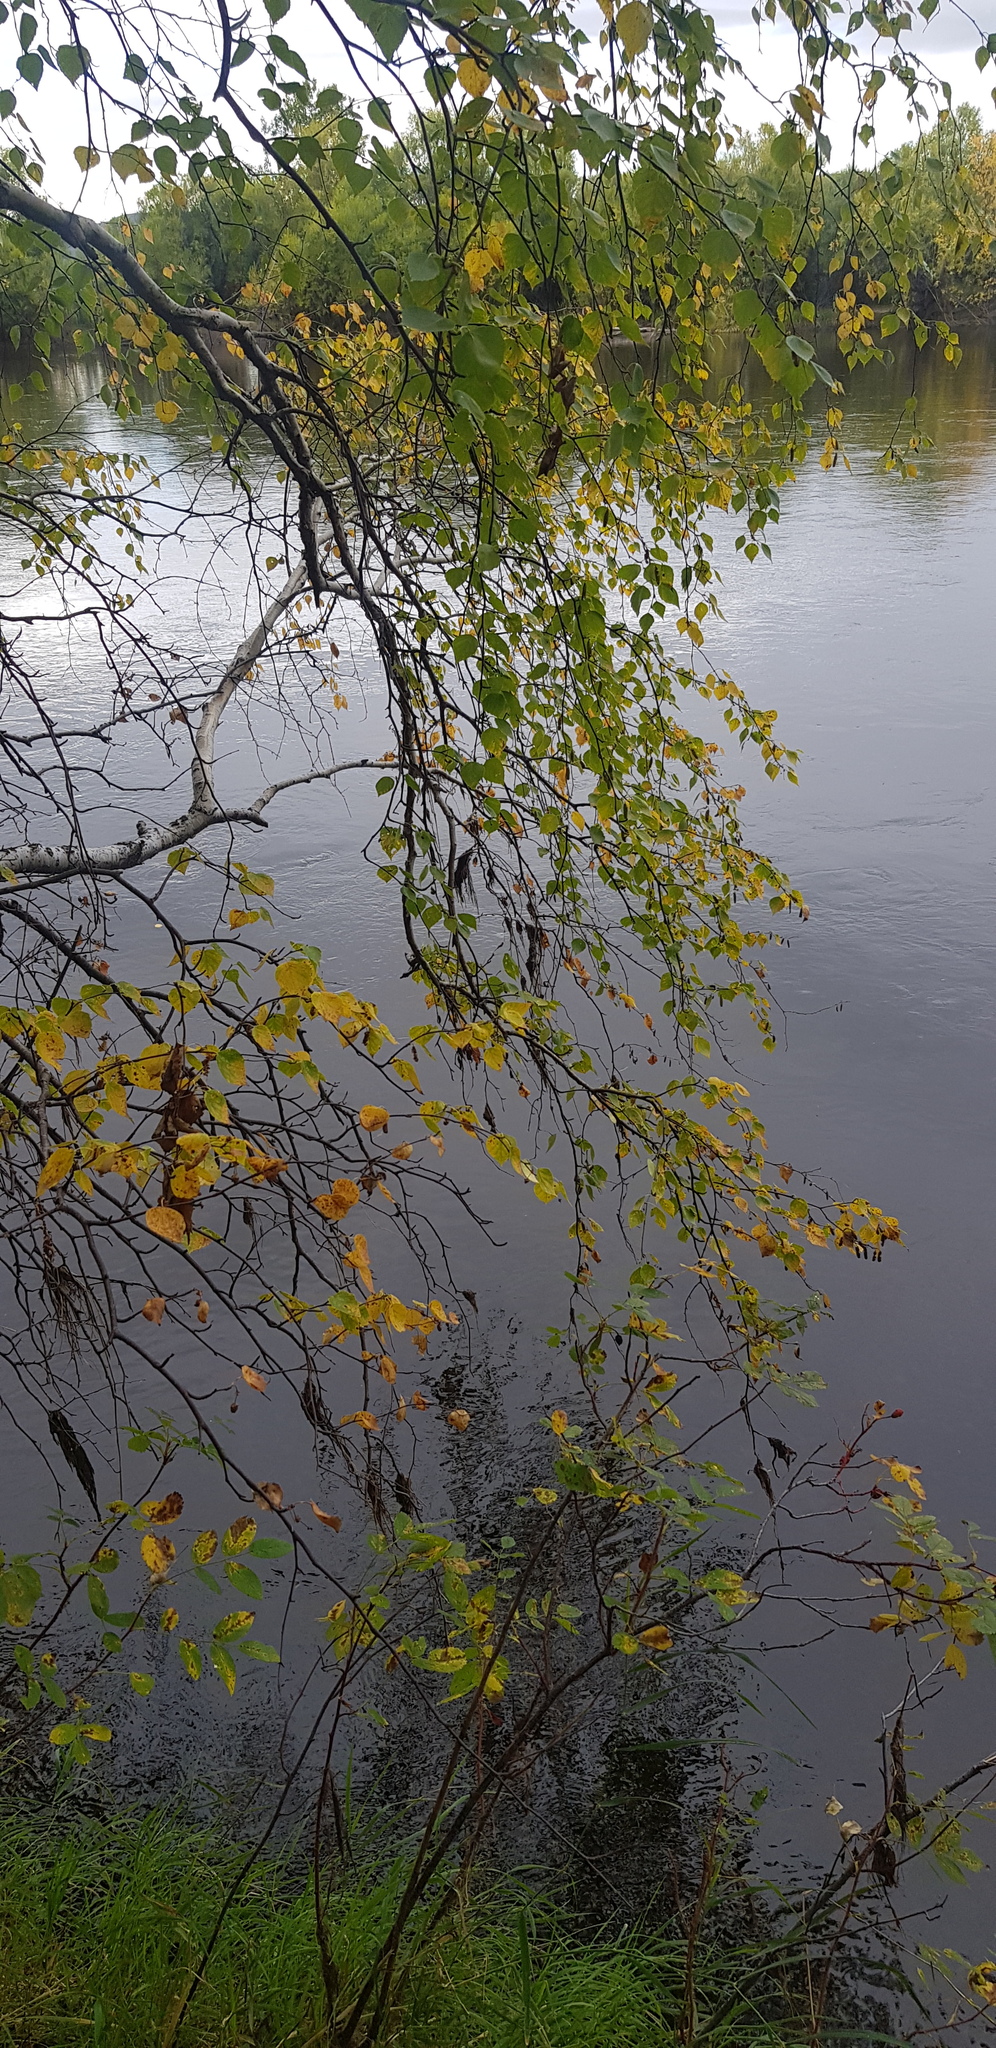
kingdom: Plantae
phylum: Tracheophyta
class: Magnoliopsida
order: Fagales
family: Betulaceae
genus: Betula
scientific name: Betula pendula
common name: Silver birch
